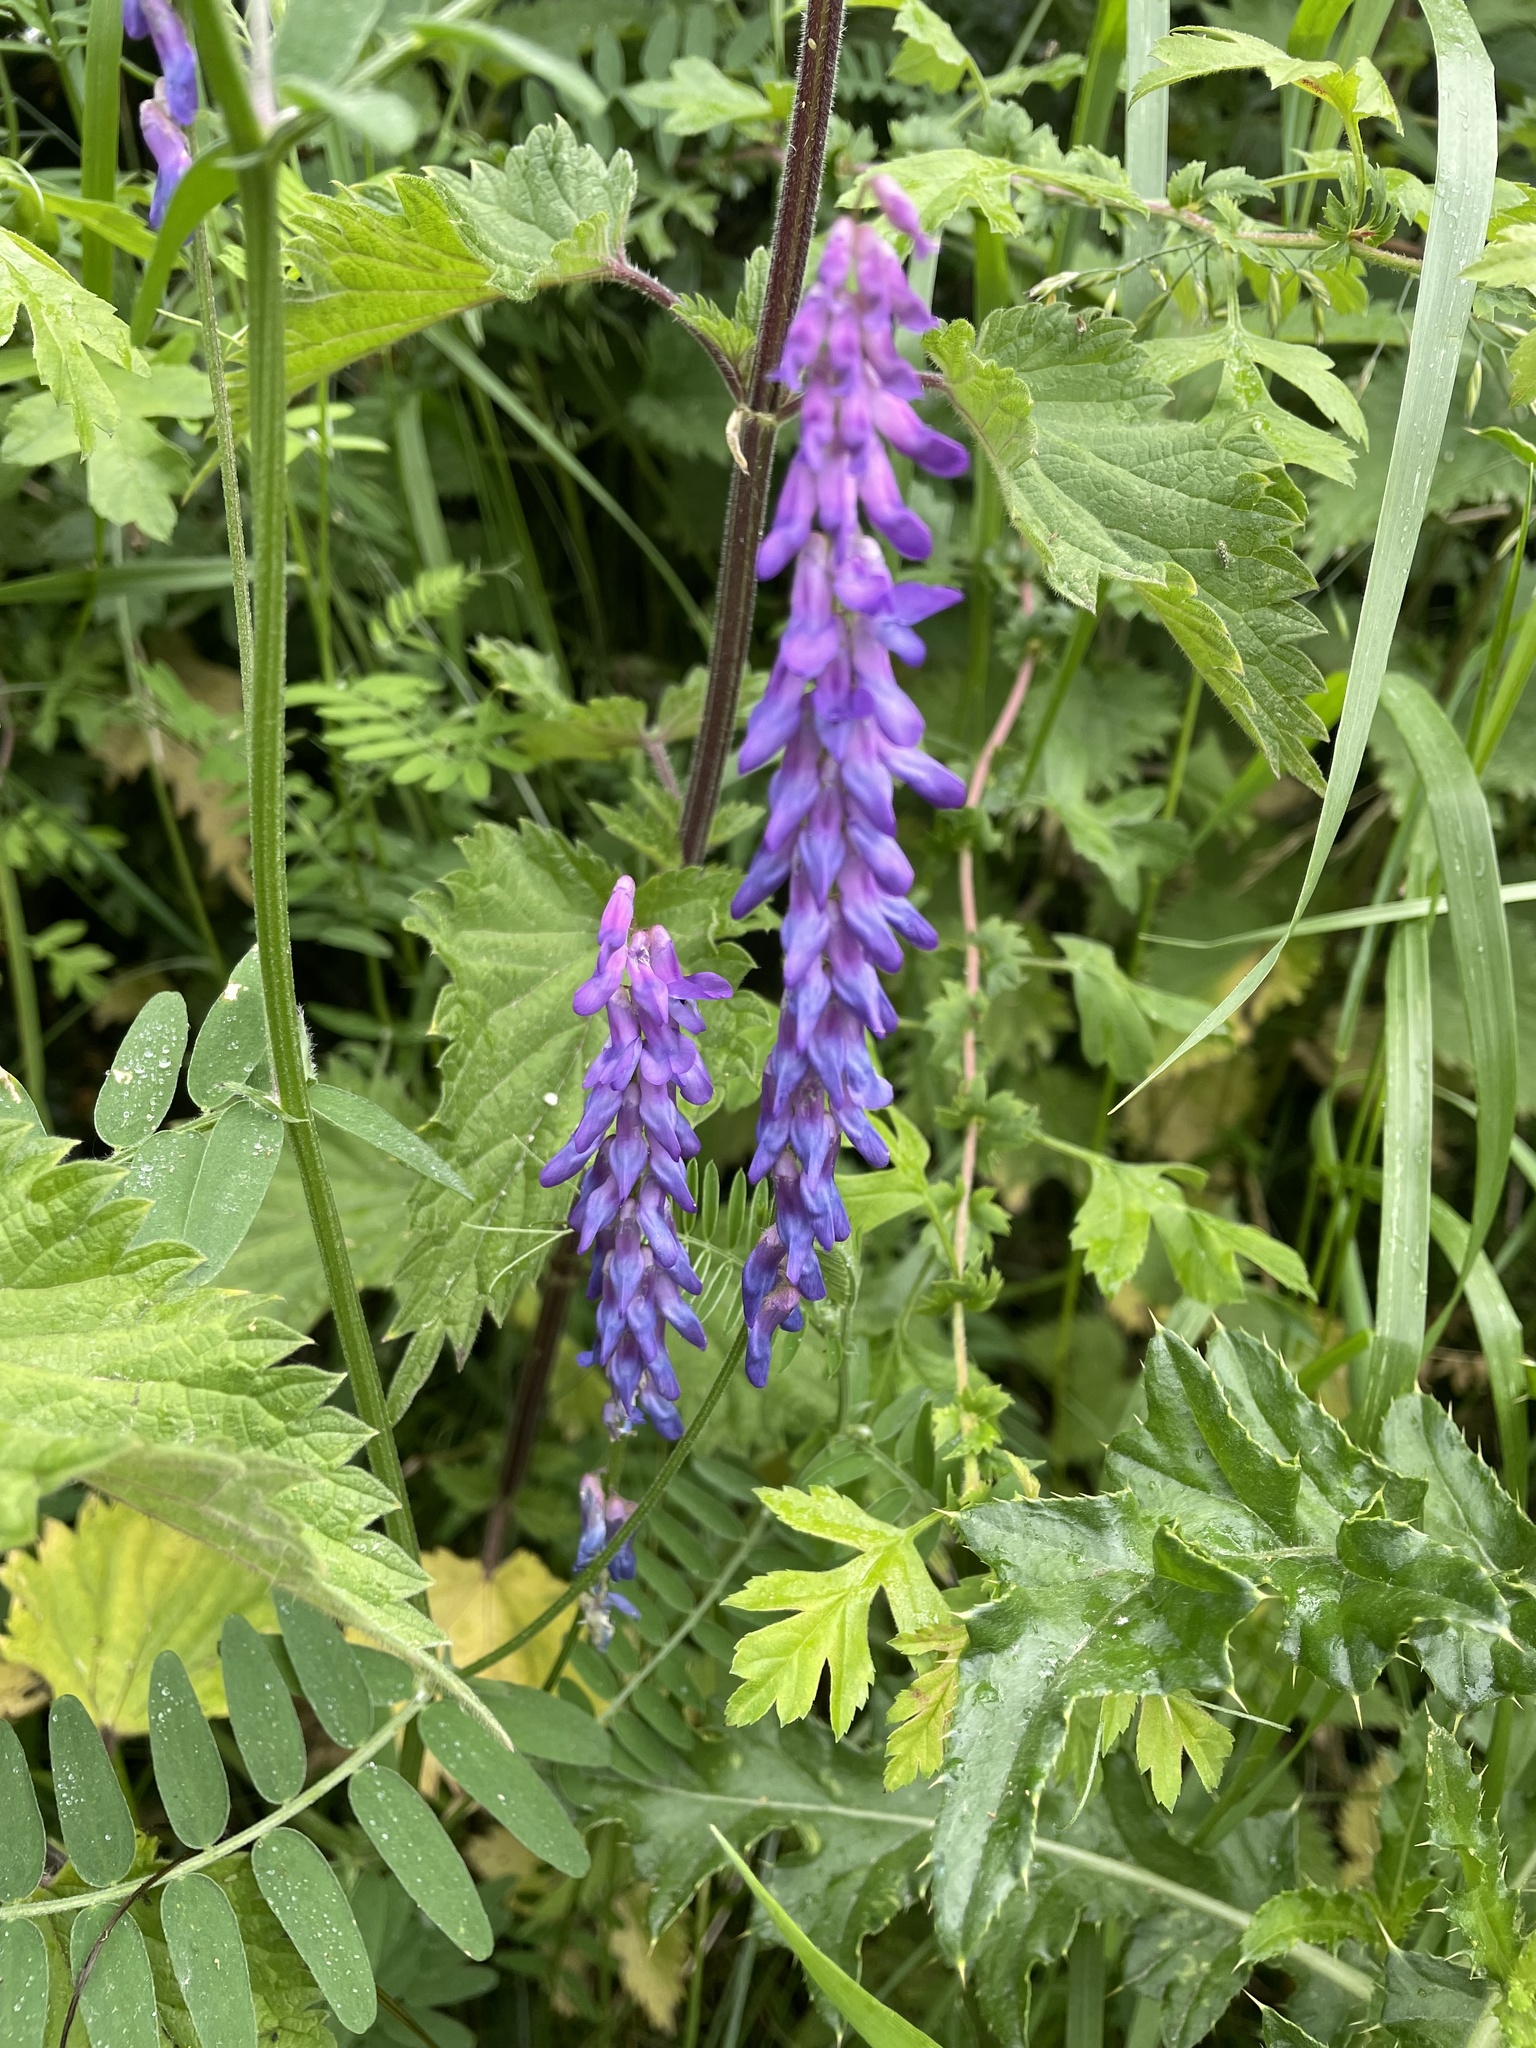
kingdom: Plantae
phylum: Tracheophyta
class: Magnoliopsida
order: Fabales
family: Fabaceae
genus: Vicia
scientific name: Vicia cracca
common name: Bird vetch
